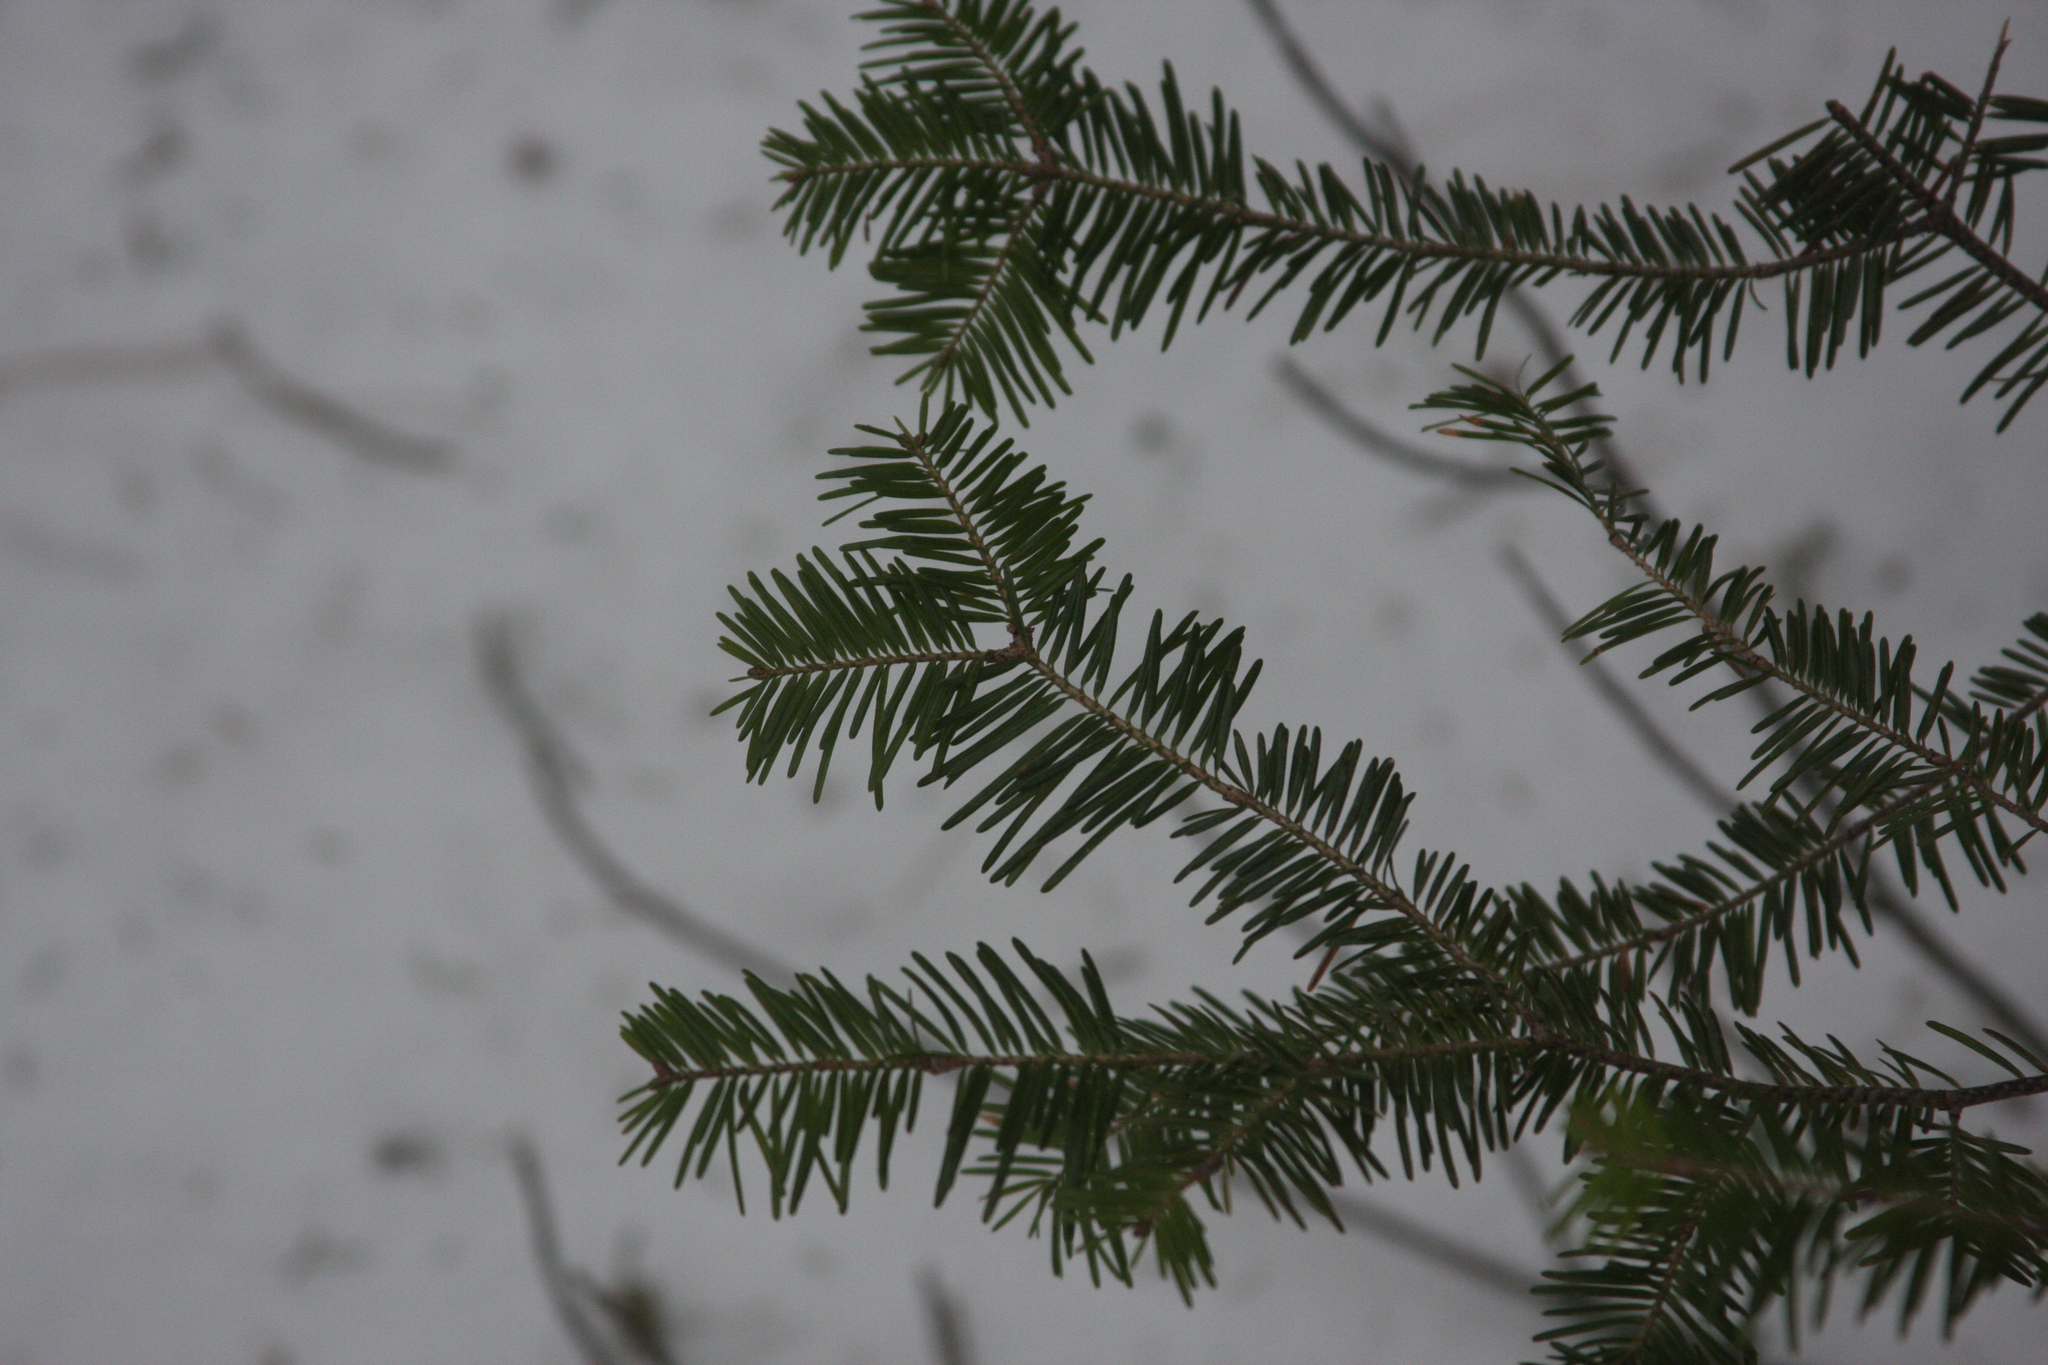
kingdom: Plantae
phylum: Tracheophyta
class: Pinopsida
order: Pinales
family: Pinaceae
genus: Abies
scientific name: Abies balsamea
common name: Balsam fir
